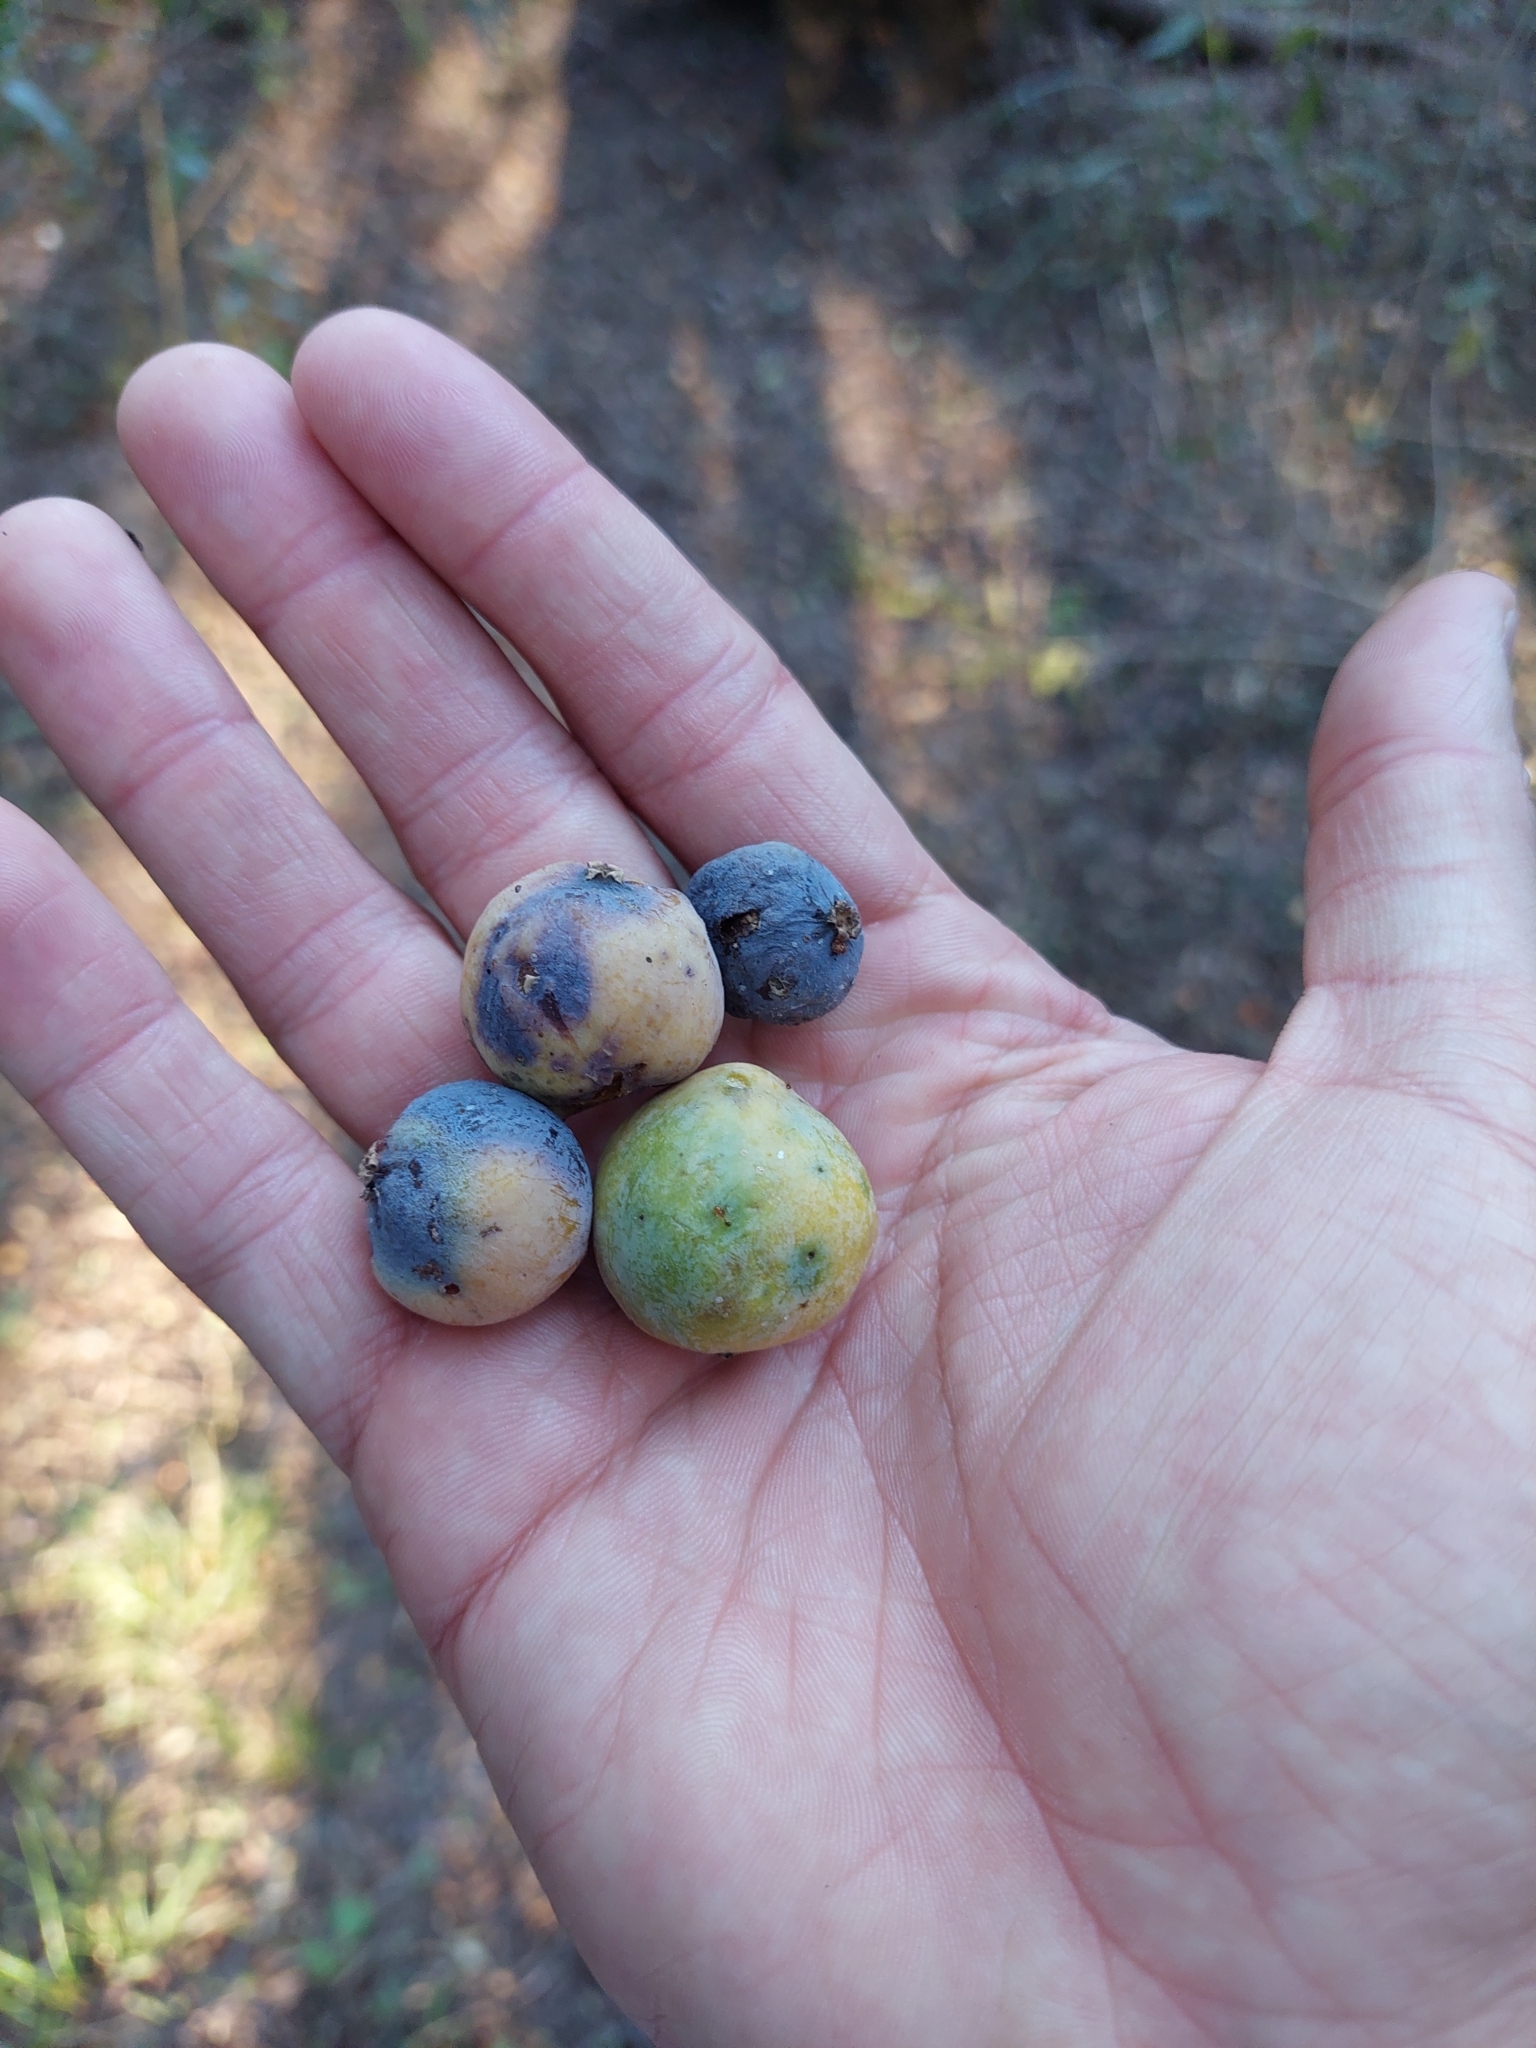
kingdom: Plantae
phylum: Tracheophyta
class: Magnoliopsida
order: Santalales
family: Cervantesiaceae
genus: Acanthosyris
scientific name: Acanthosyris spinescens
